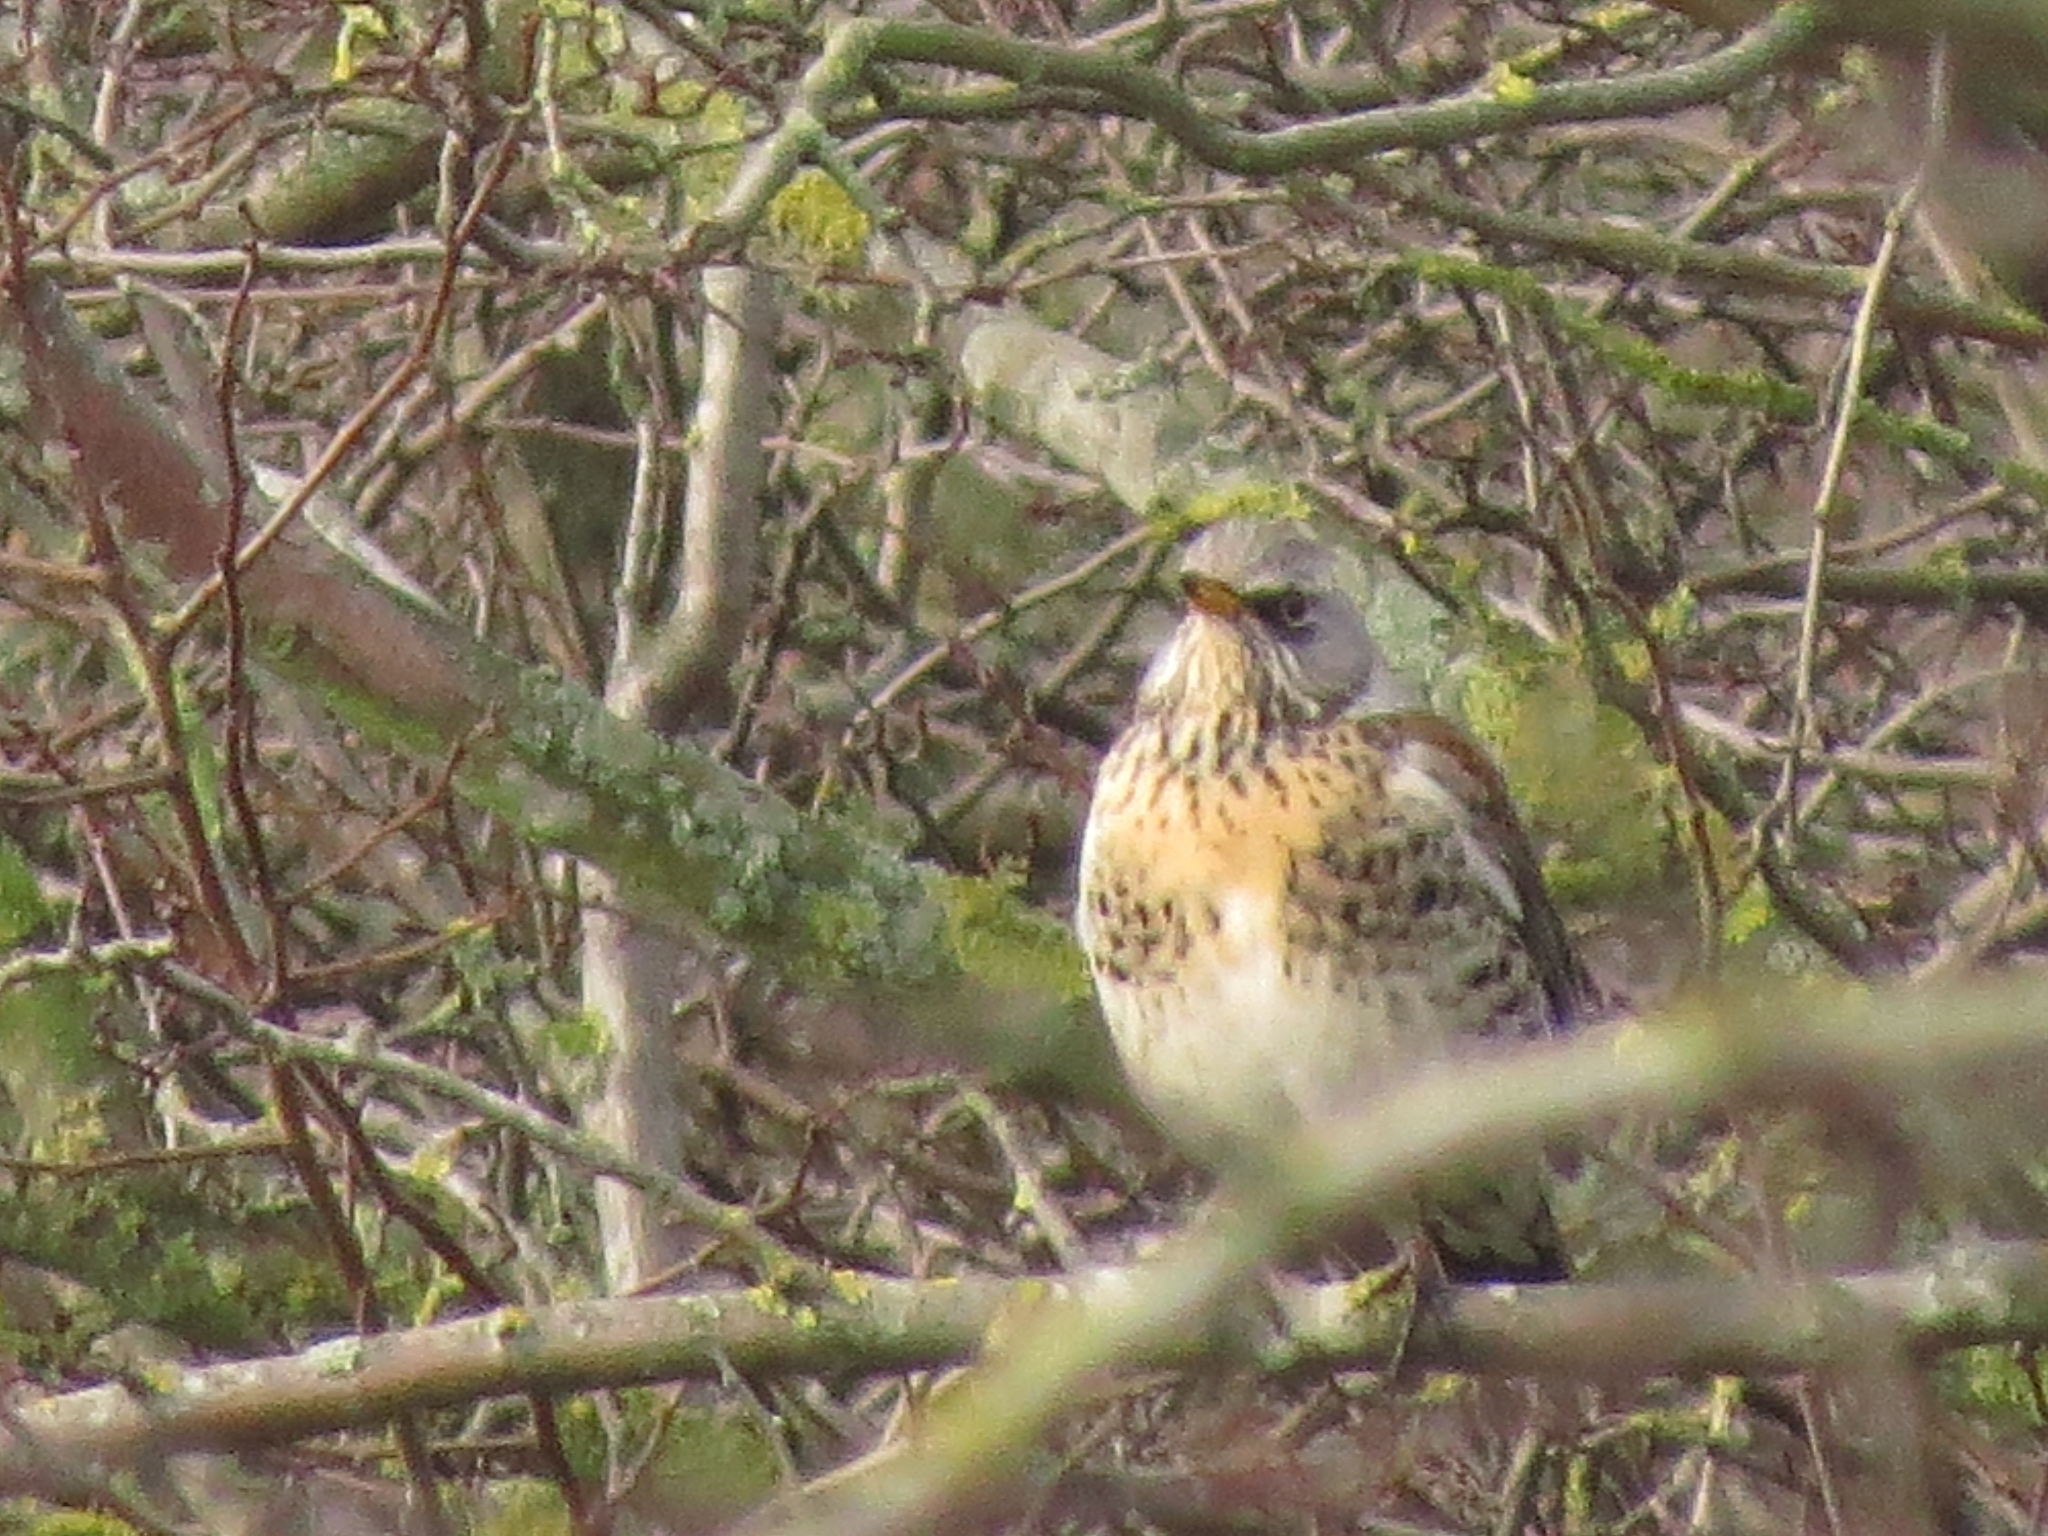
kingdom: Animalia
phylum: Chordata
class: Aves
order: Passeriformes
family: Turdidae
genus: Turdus
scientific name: Turdus pilaris
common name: Fieldfare
